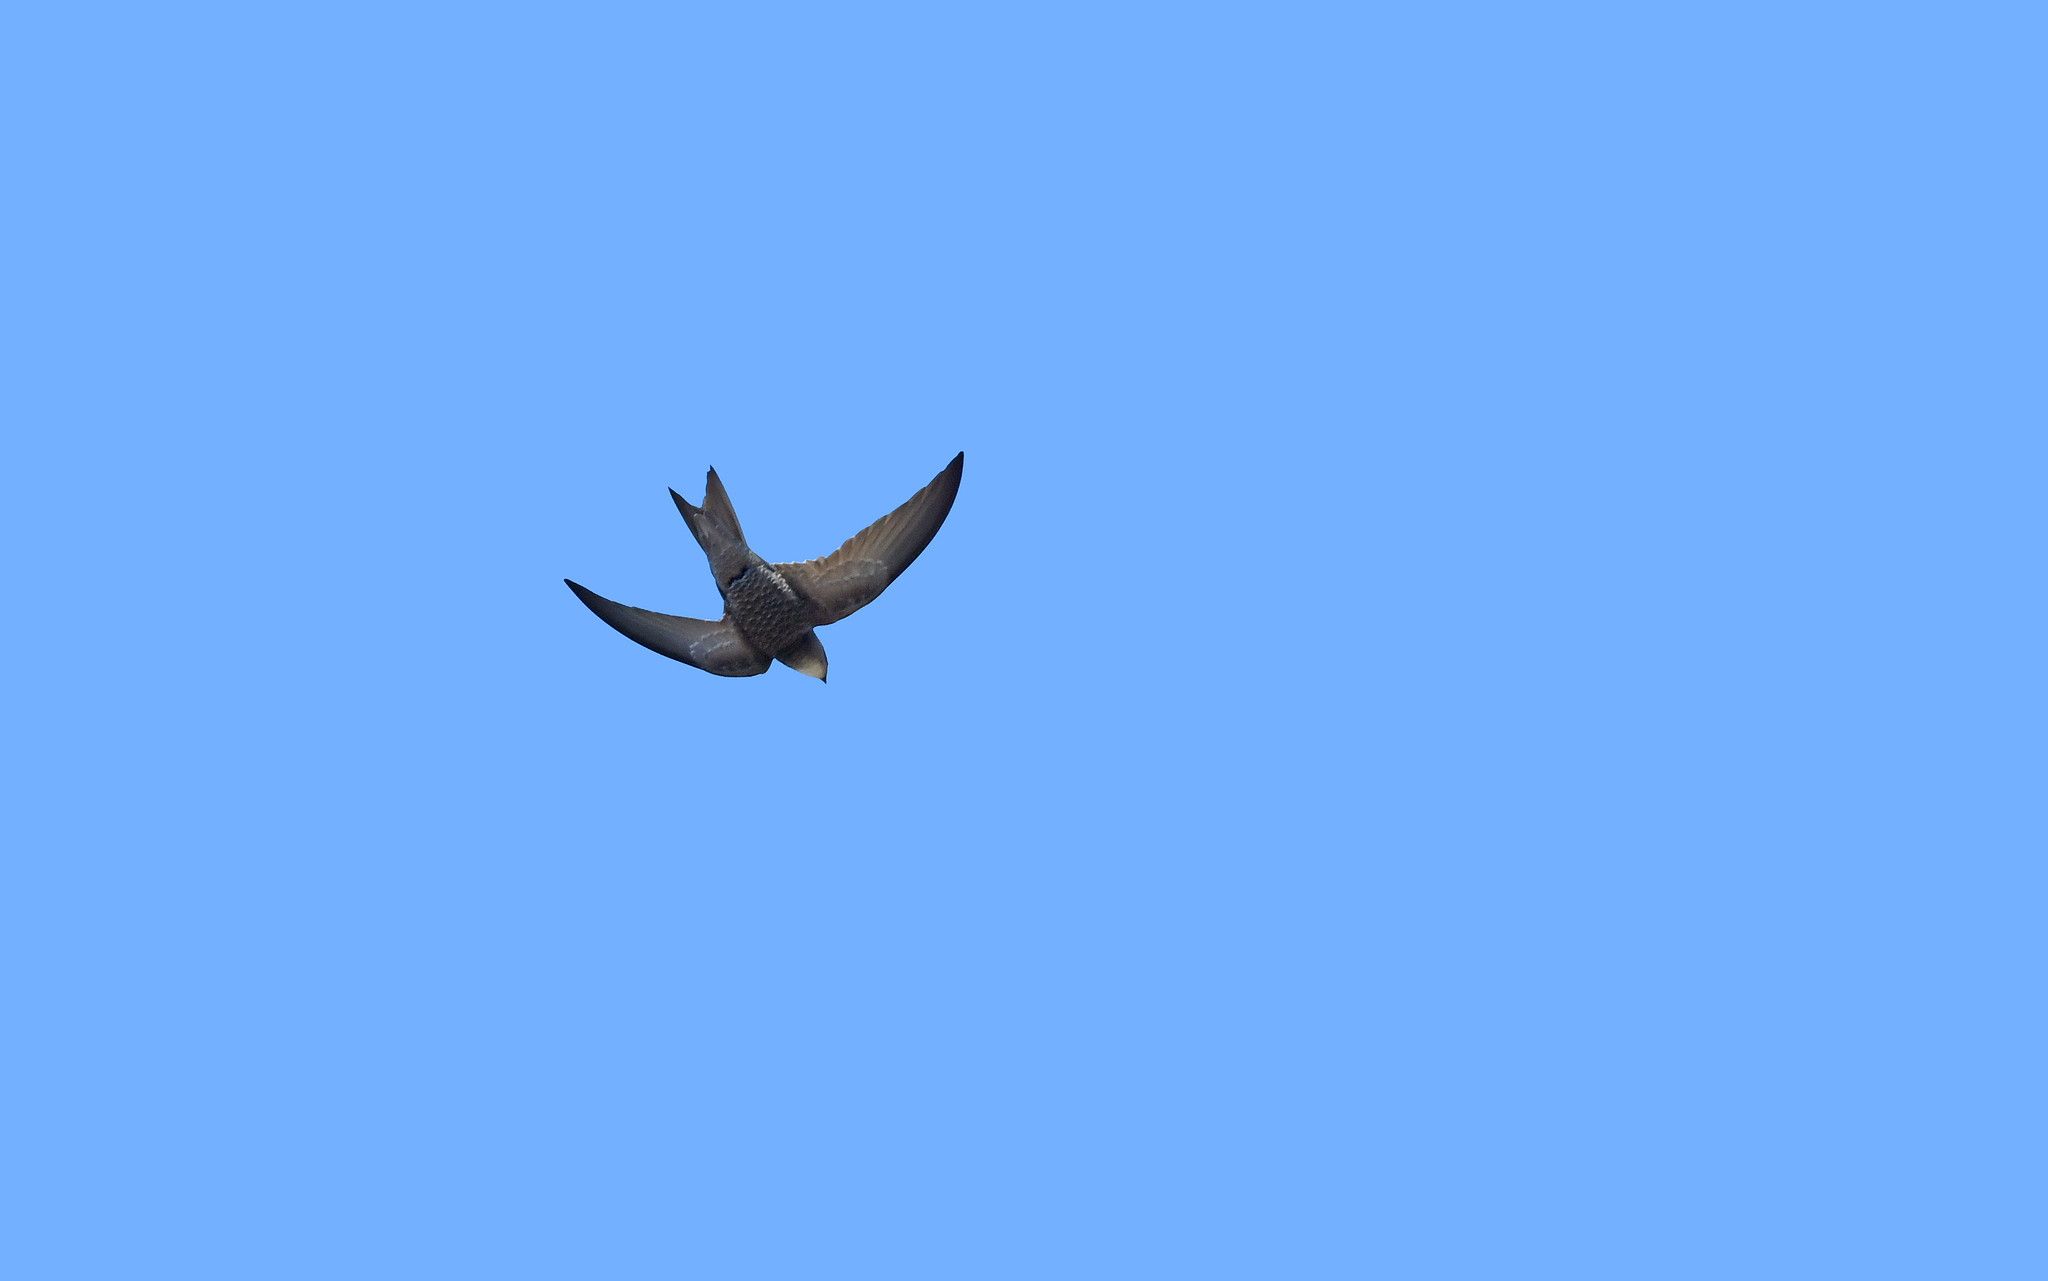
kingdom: Animalia
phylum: Chordata
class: Aves
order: Apodiformes
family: Apodidae
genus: Apus
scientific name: Apus pallidus
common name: Pallid swift
